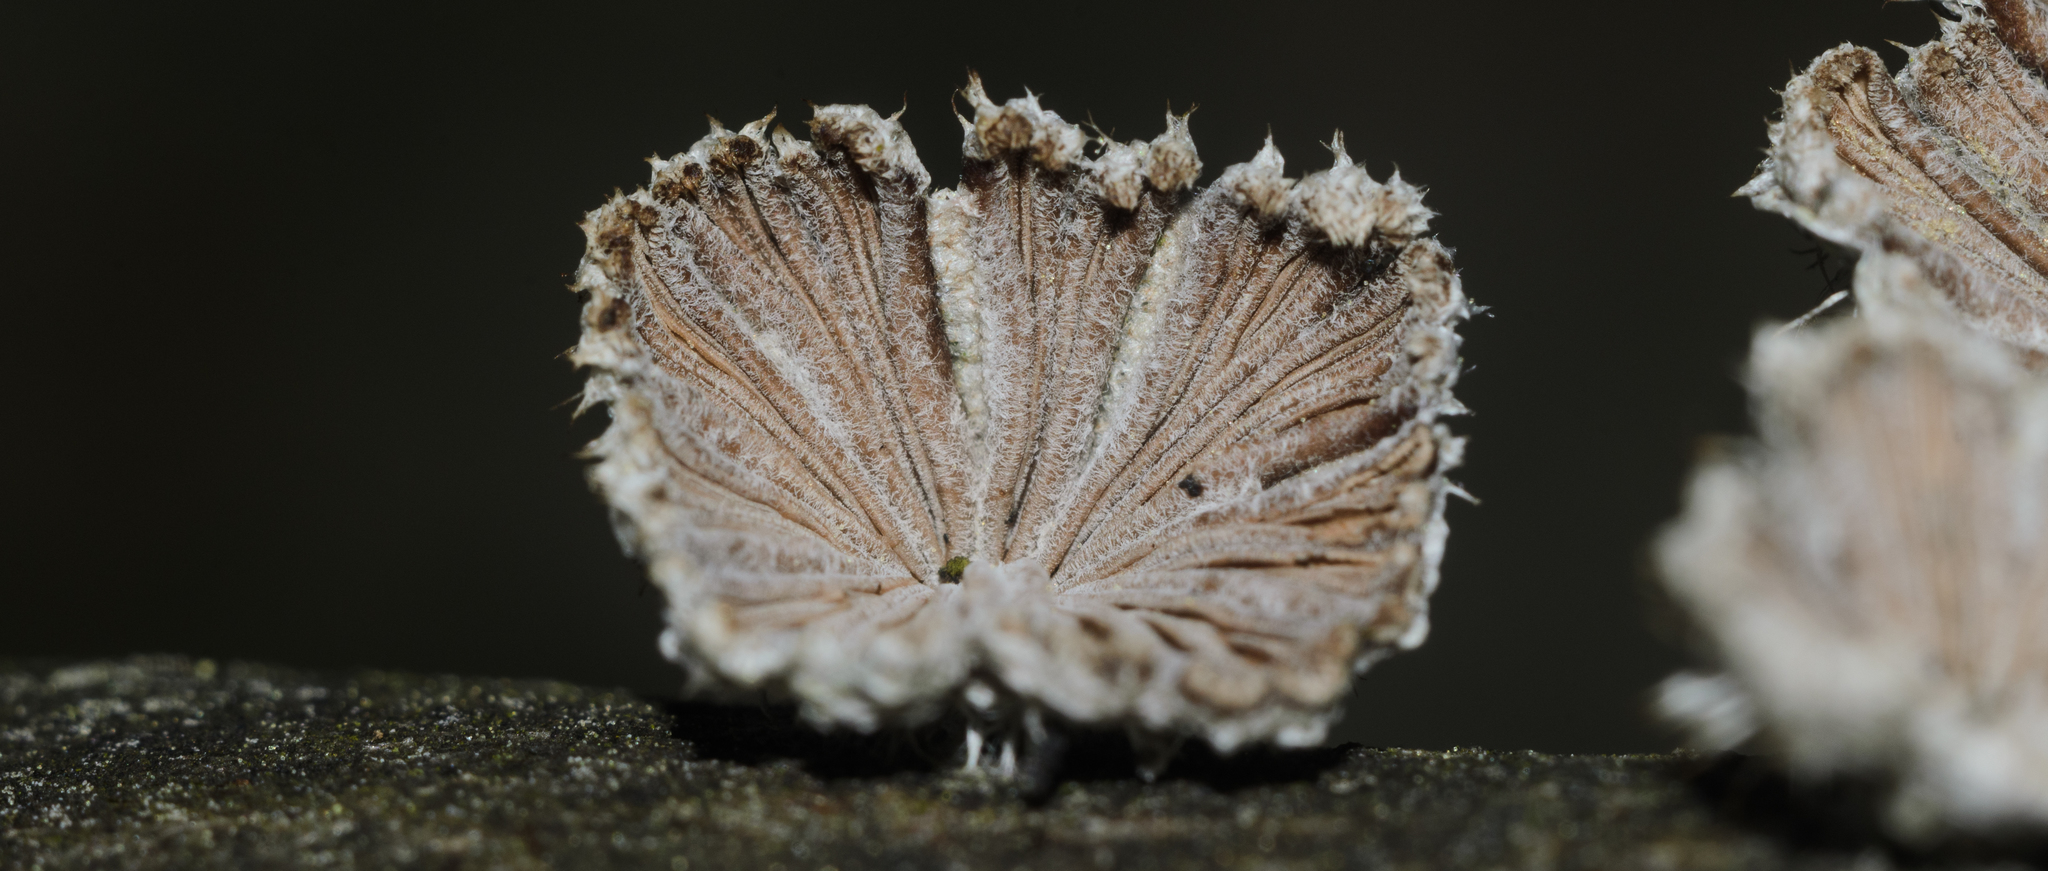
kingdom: Fungi
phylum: Basidiomycota
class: Agaricomycetes
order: Agaricales
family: Schizophyllaceae
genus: Schizophyllum
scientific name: Schizophyllum commune
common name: Common porecrust
